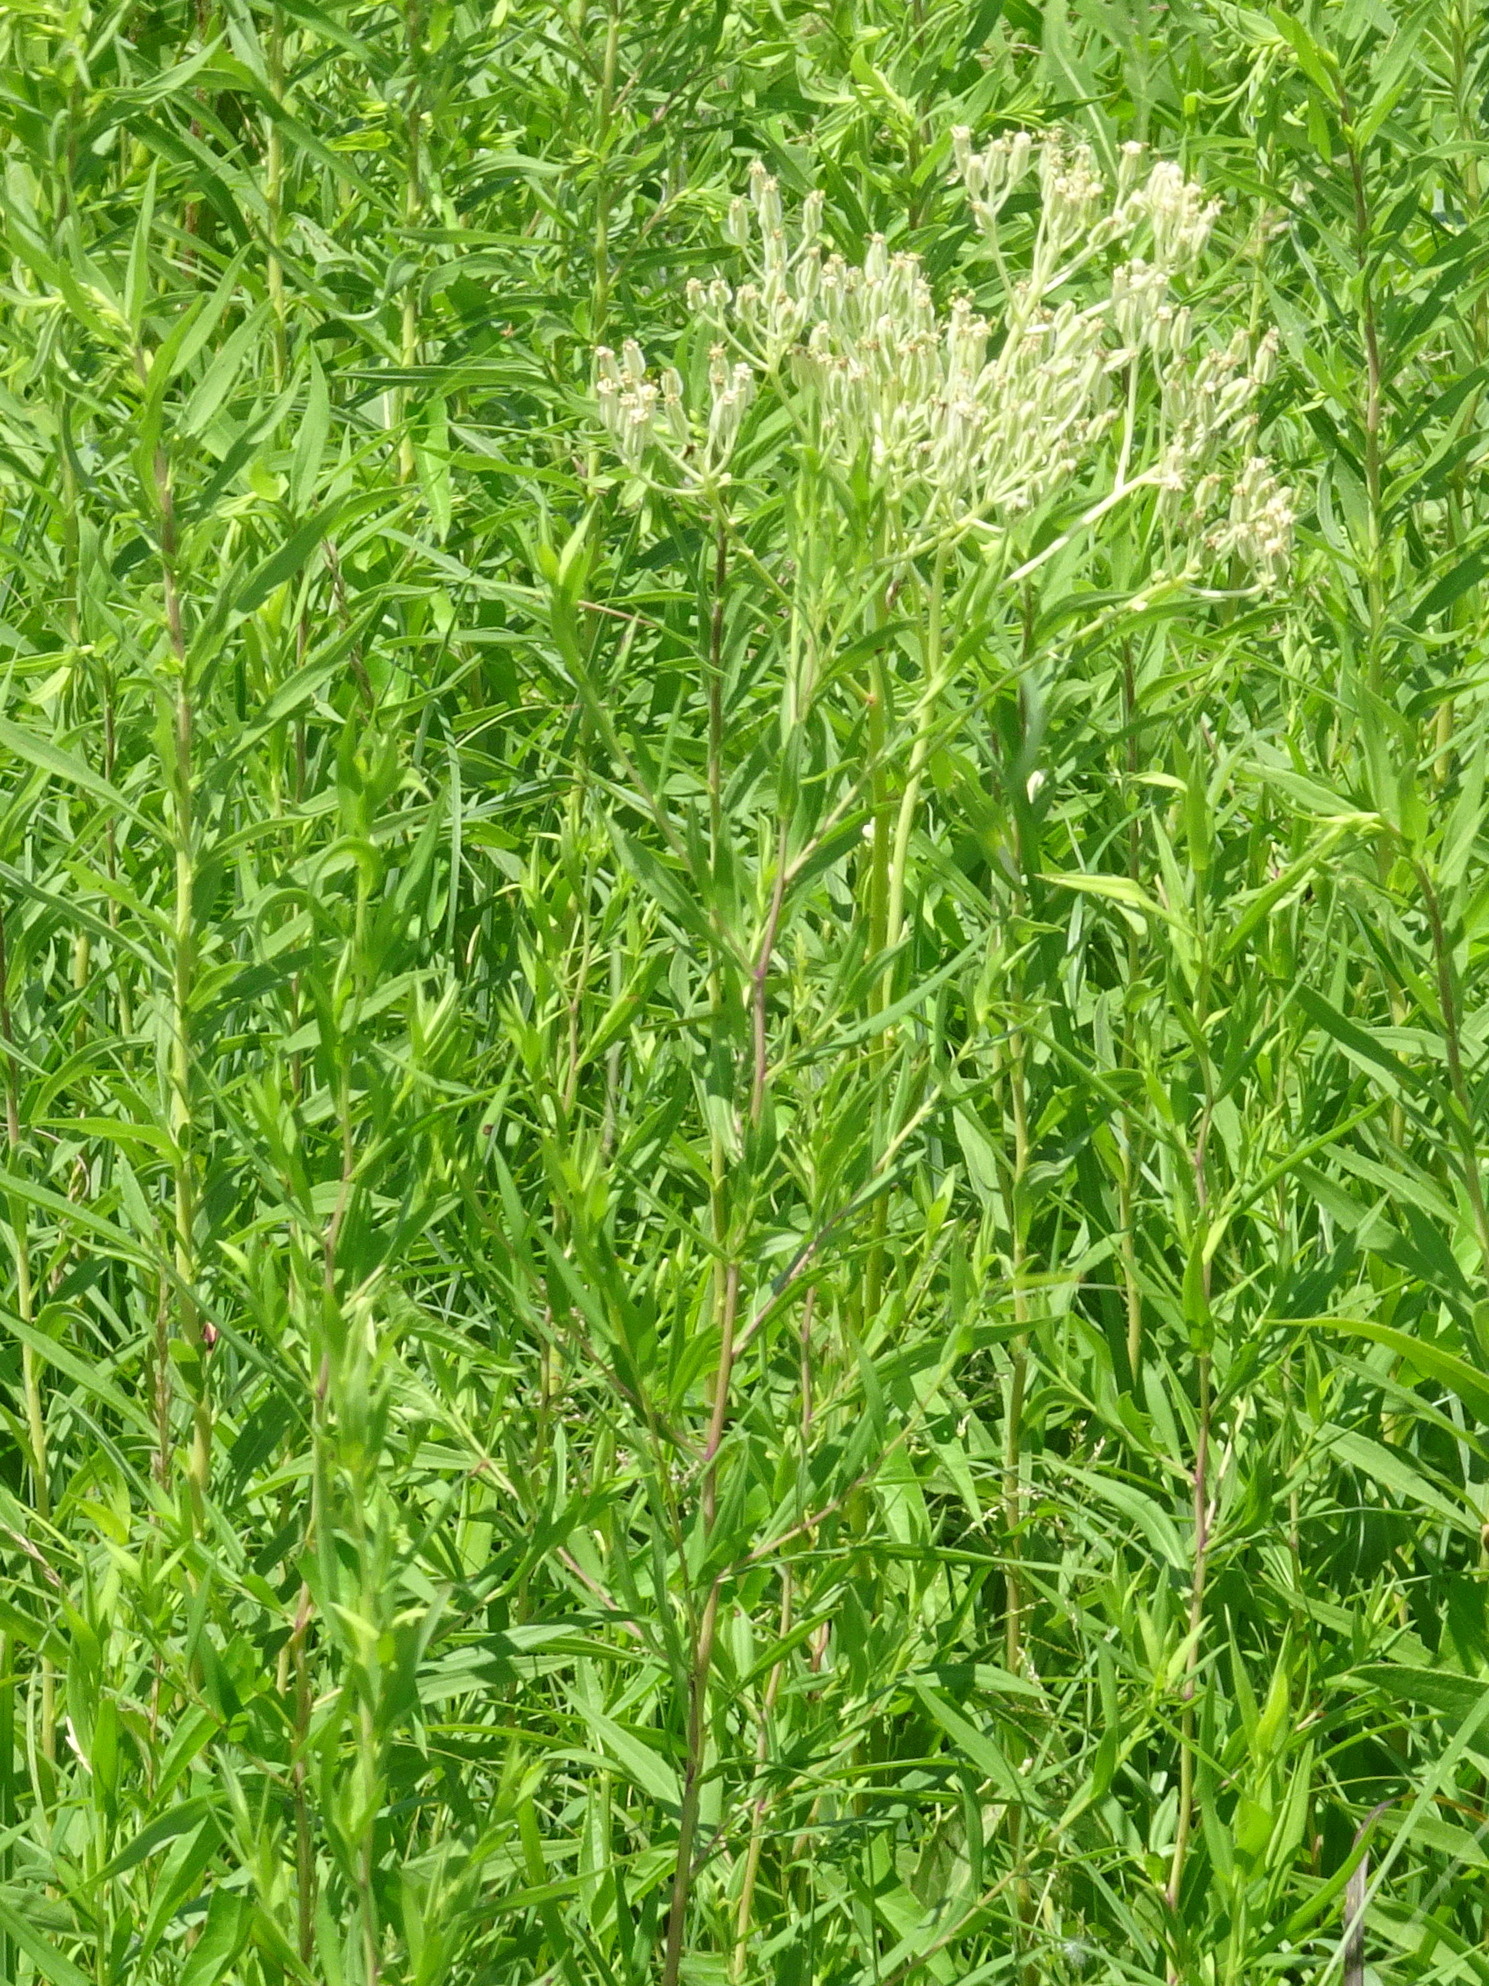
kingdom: Plantae
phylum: Tracheophyta
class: Magnoliopsida
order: Asterales
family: Asteraceae
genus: Arnoglossum
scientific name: Arnoglossum plantagineum
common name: Groove-stemmed indian-plantain
